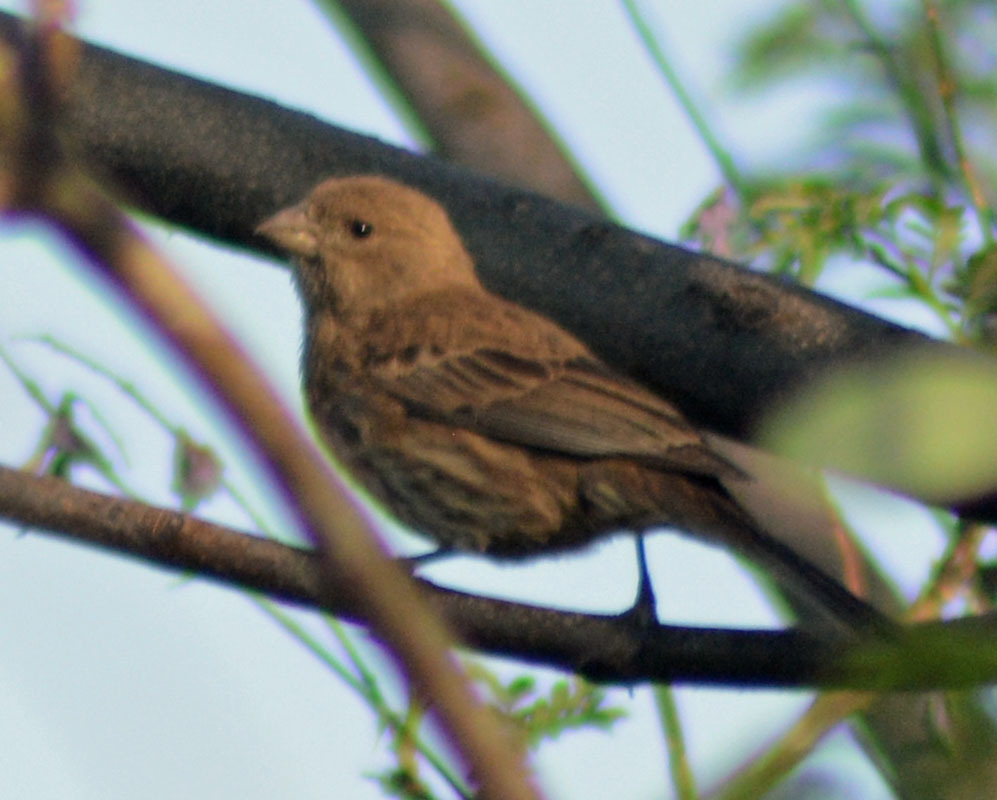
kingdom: Animalia
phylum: Chordata
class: Aves
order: Passeriformes
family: Fringillidae
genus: Haemorhous
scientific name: Haemorhous mexicanus
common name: House finch
